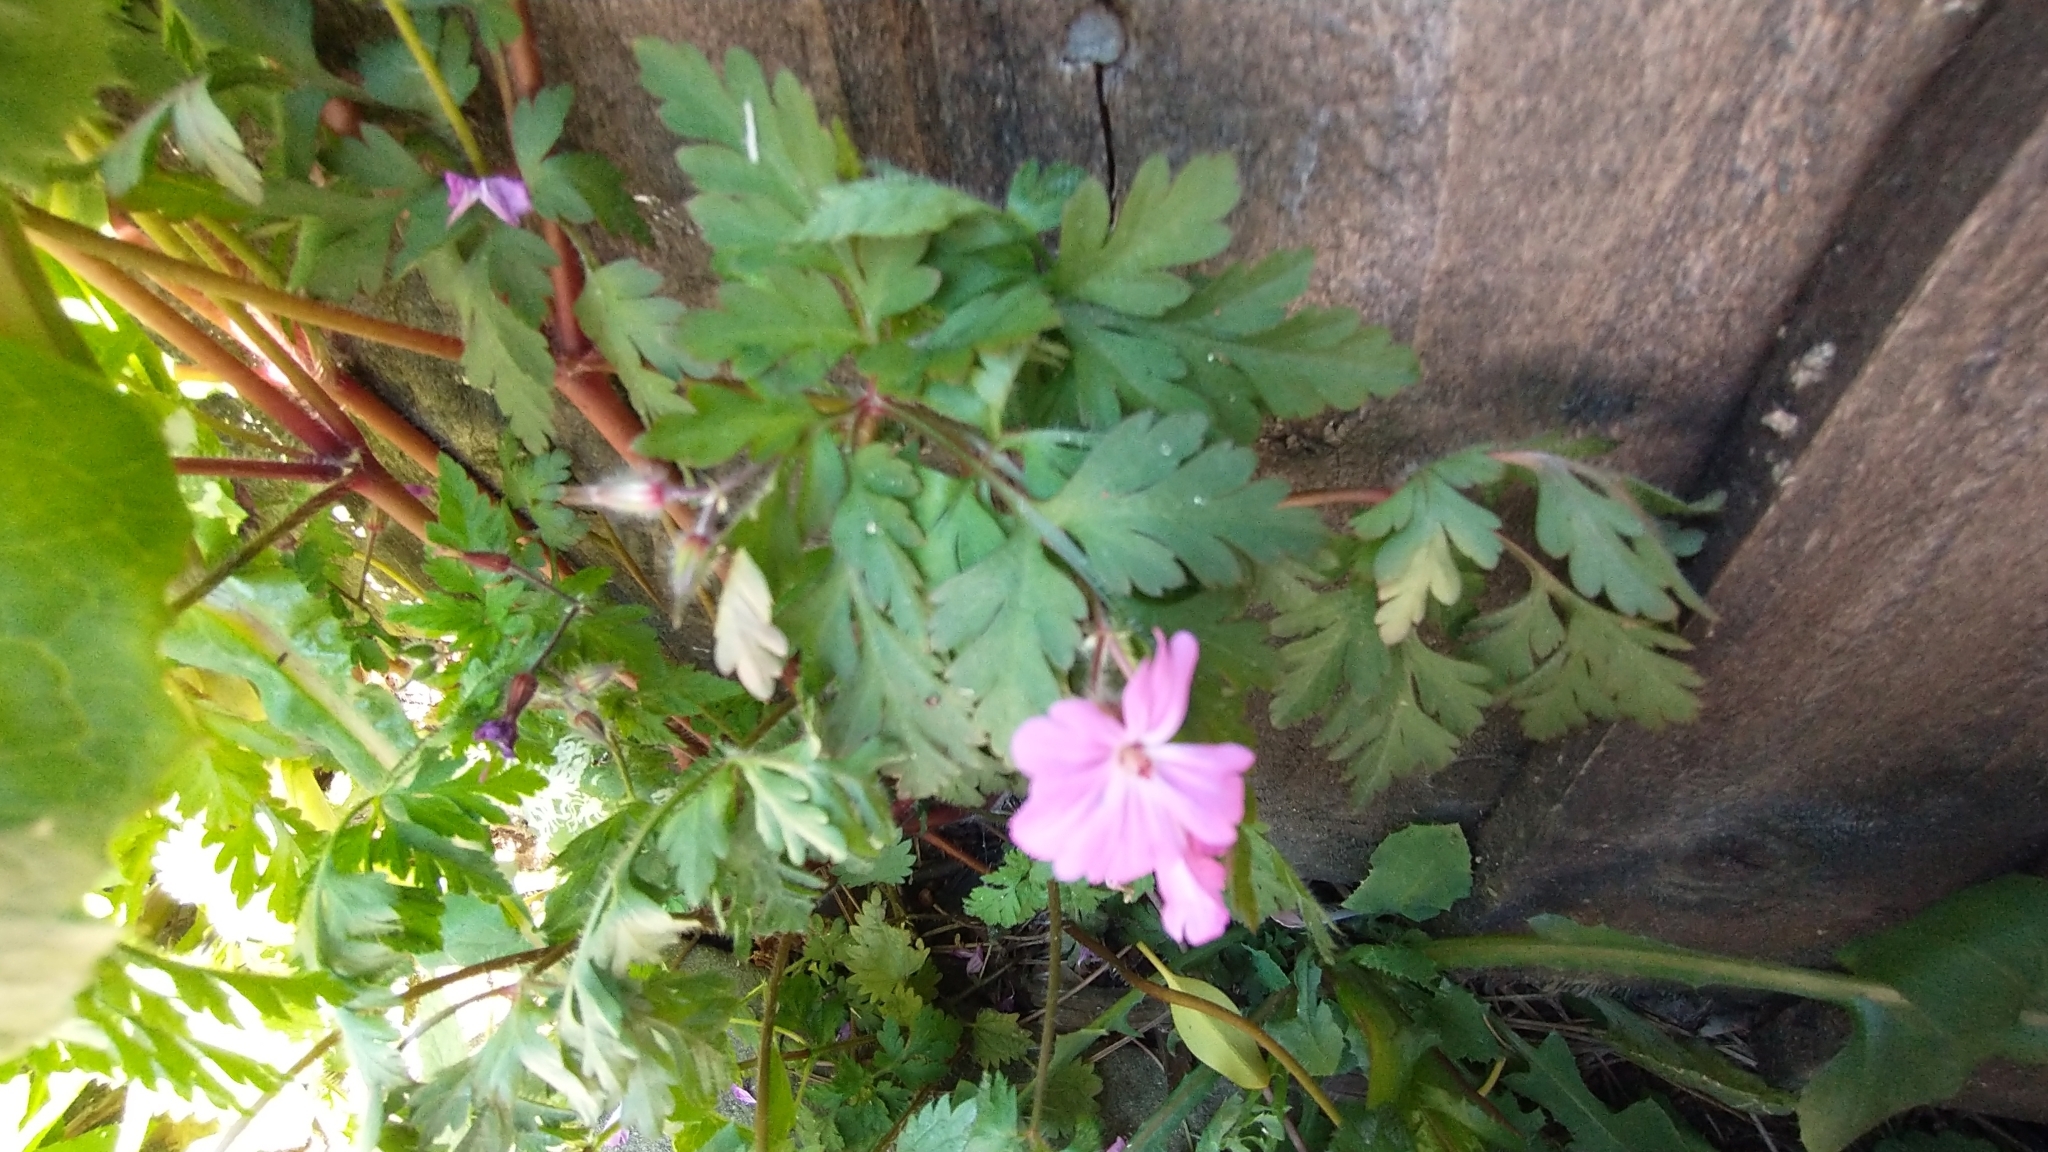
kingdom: Plantae
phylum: Tracheophyta
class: Magnoliopsida
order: Geraniales
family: Geraniaceae
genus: Geranium
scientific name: Geranium robertianum
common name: Herb-robert
